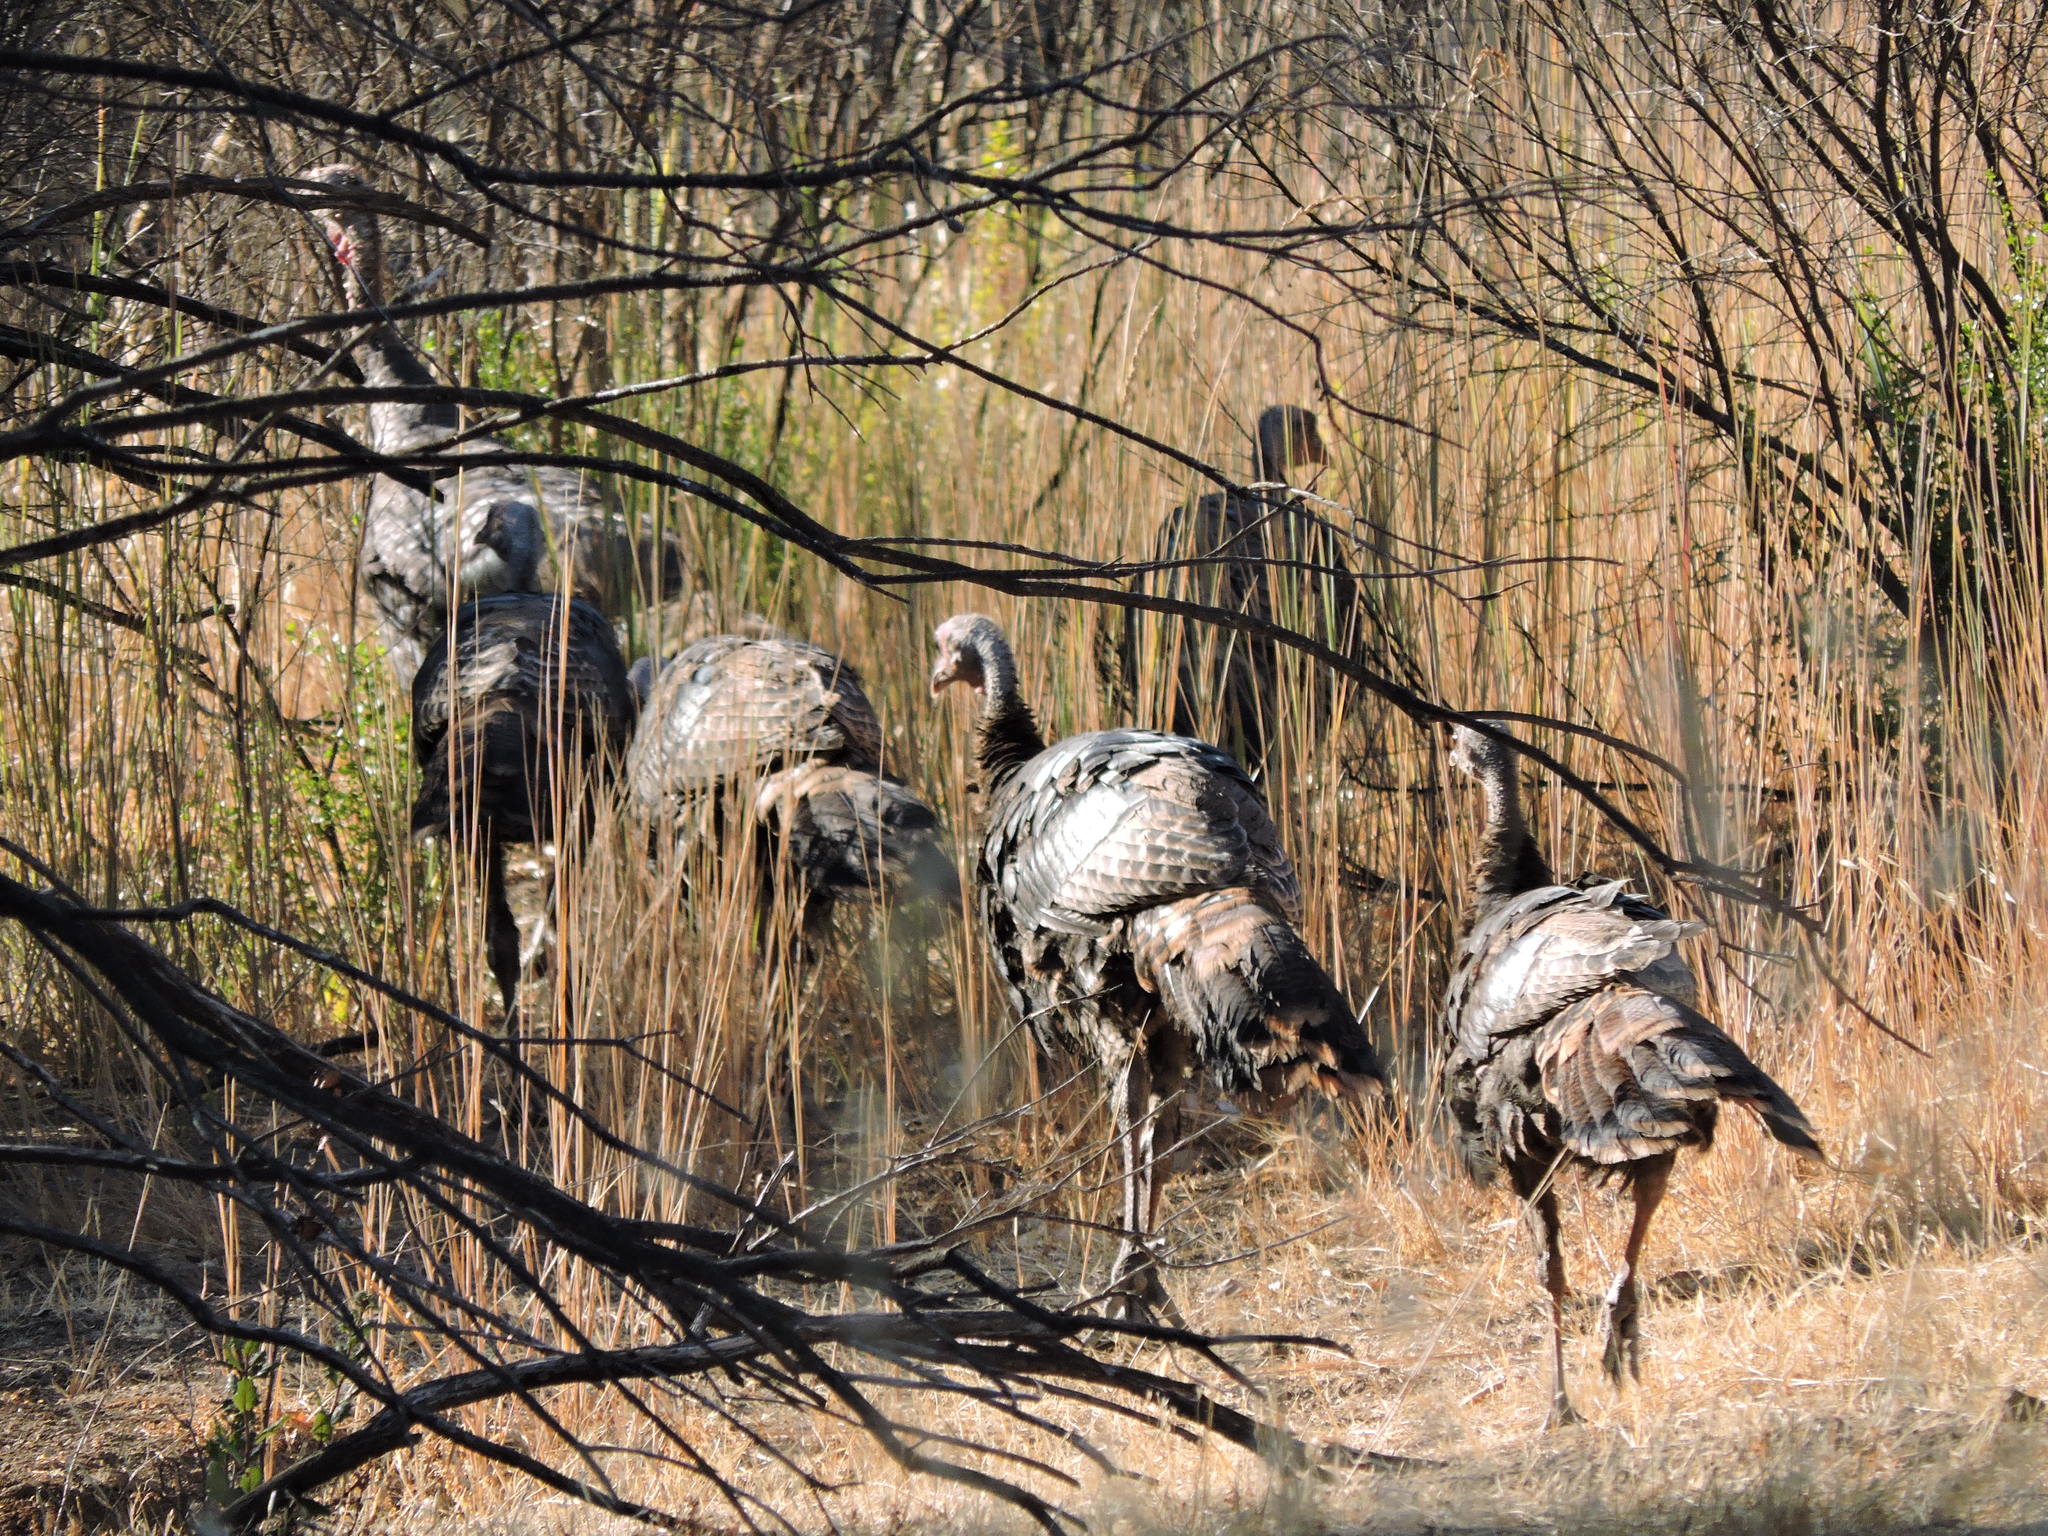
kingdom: Animalia
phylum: Chordata
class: Aves
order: Galliformes
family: Phasianidae
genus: Meleagris
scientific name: Meleagris gallopavo
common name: Wild turkey
